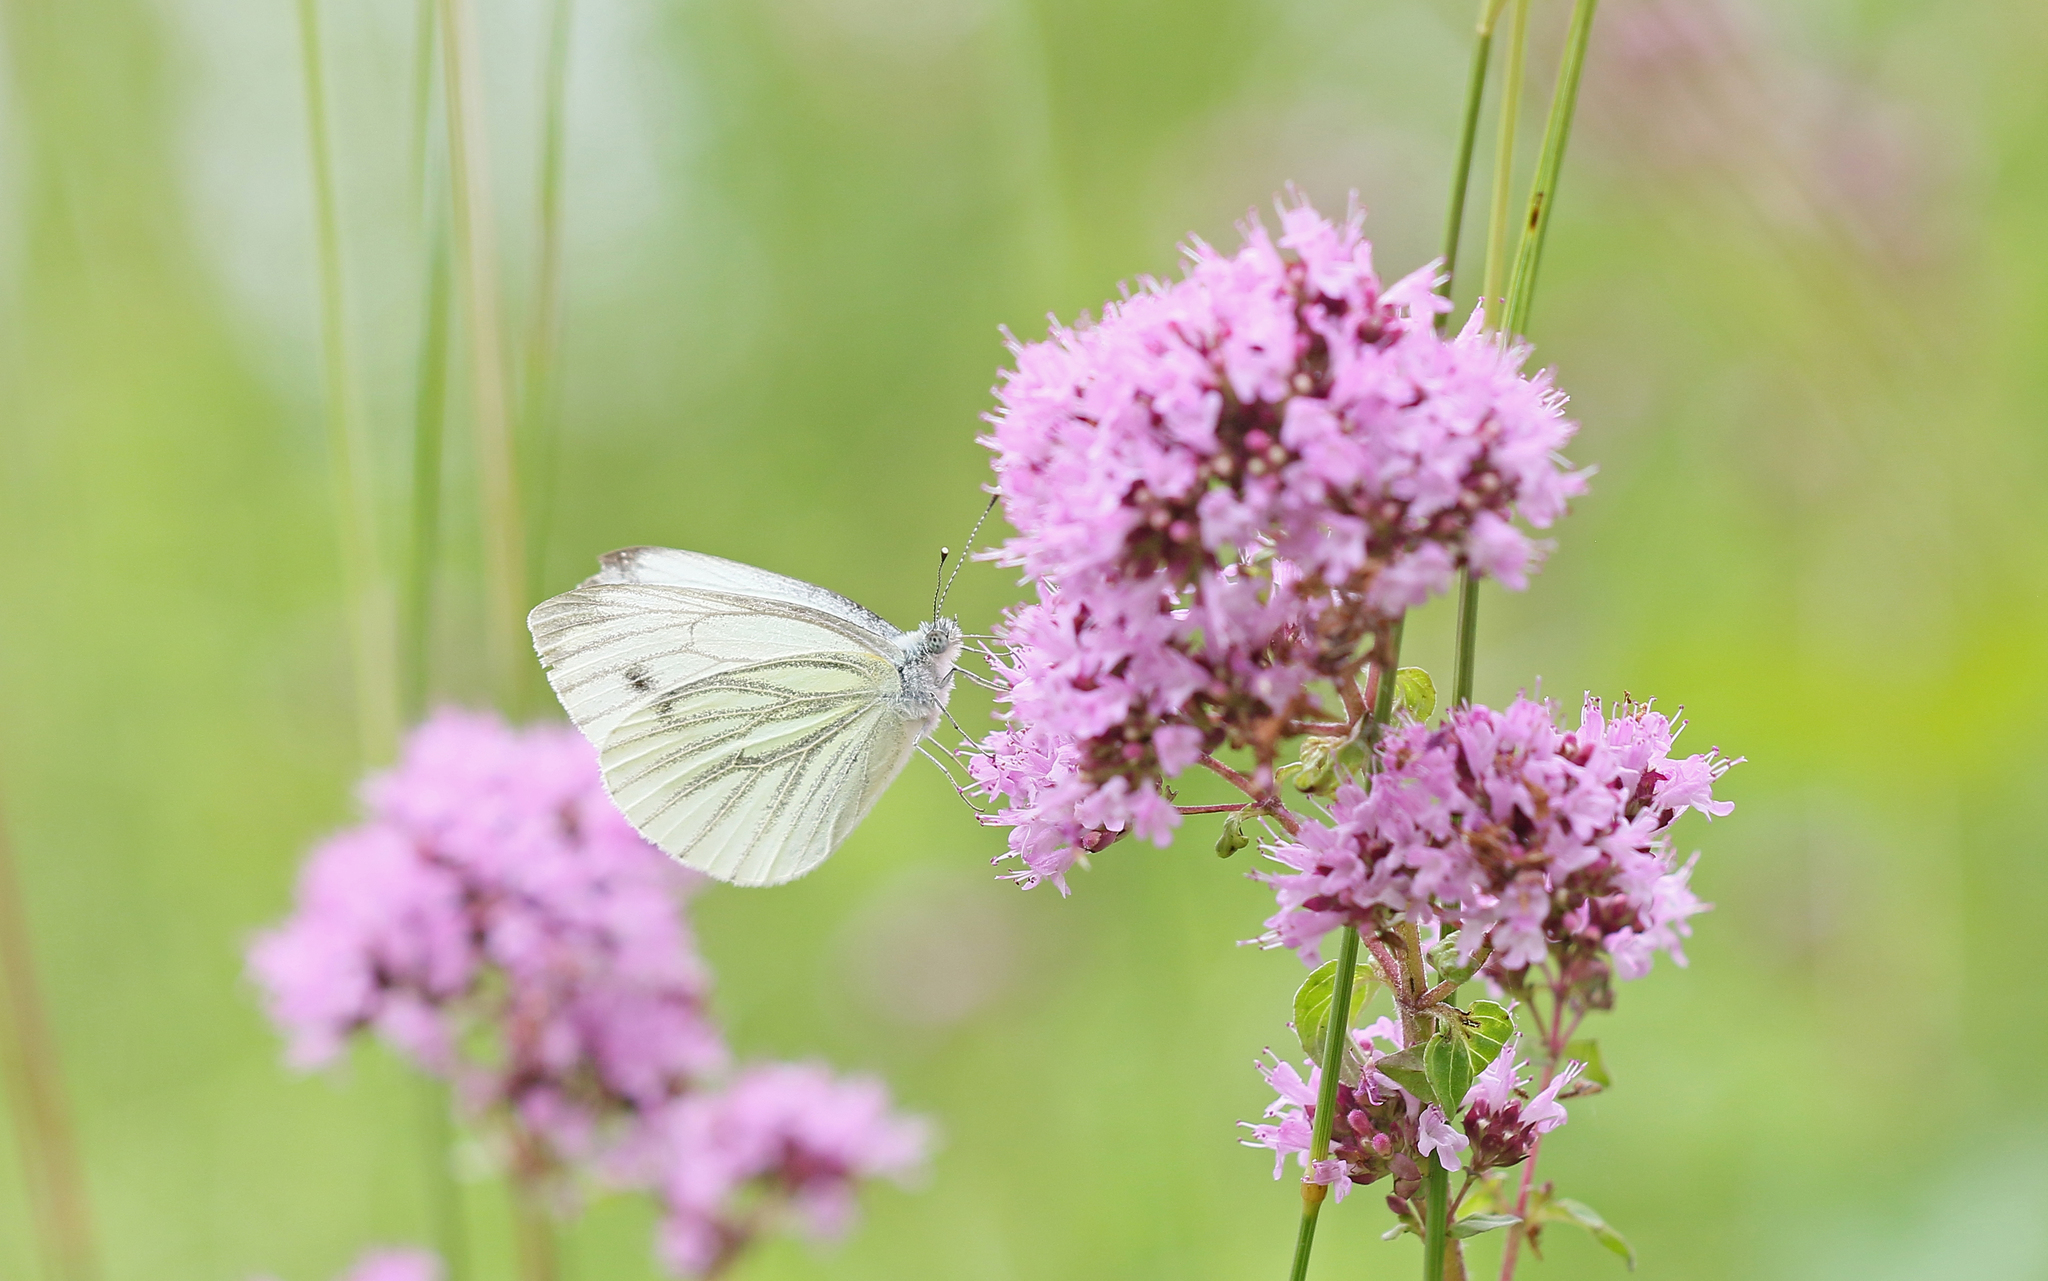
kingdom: Animalia
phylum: Arthropoda
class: Insecta
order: Lepidoptera
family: Pieridae
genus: Pieris
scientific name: Pieris napi
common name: Green-veined white
